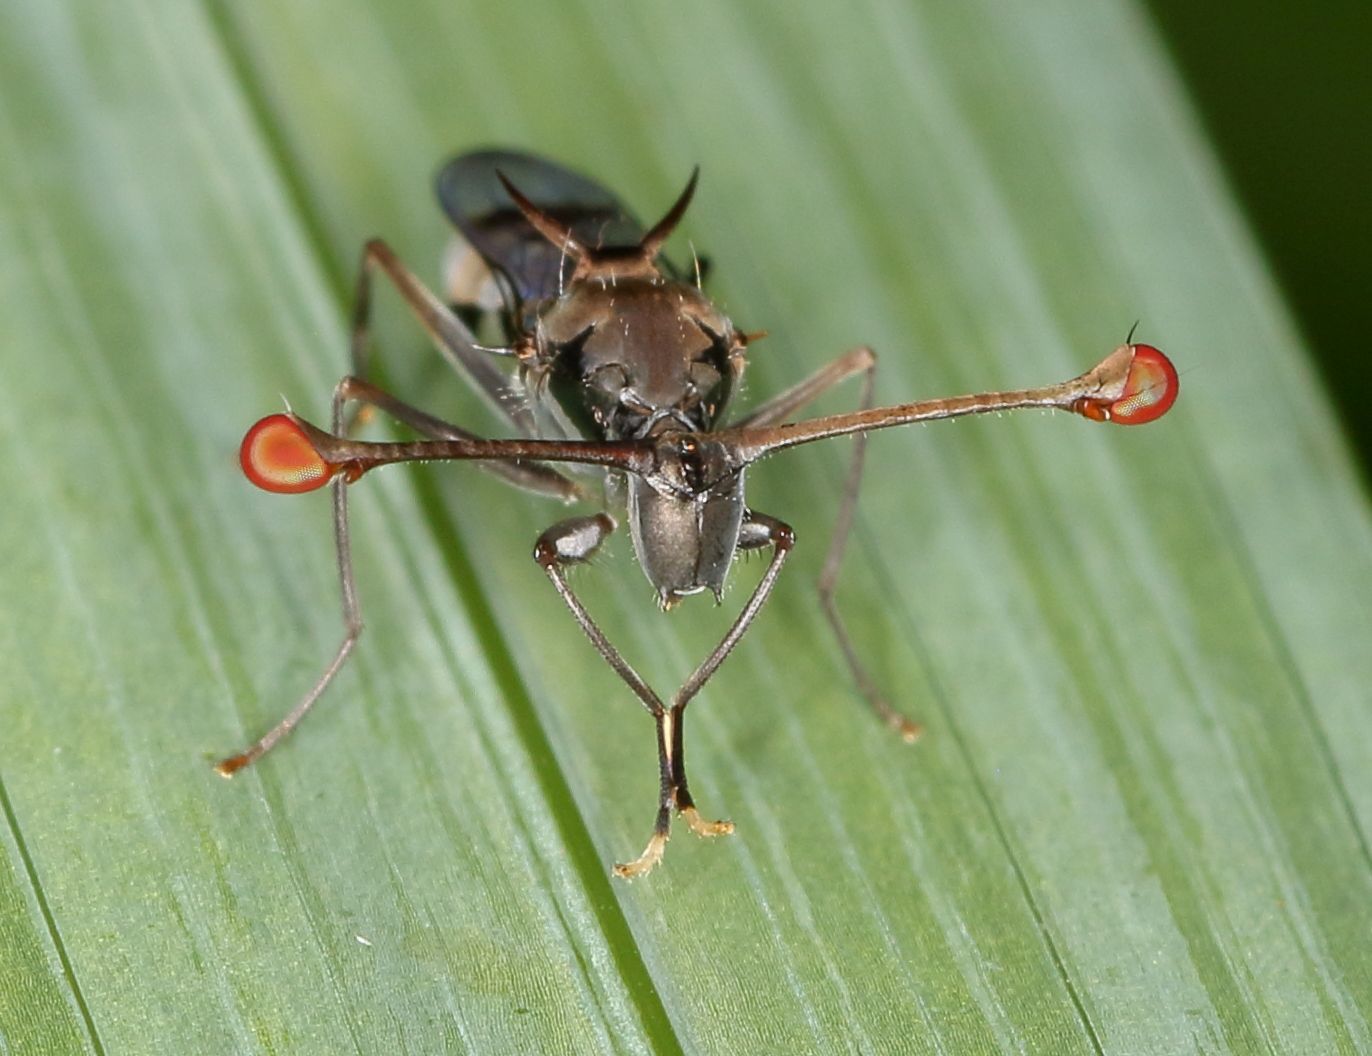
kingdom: Animalia
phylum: Arthropoda
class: Insecta
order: Diptera
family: Diopsidae
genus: Chaetodiopsis
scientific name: Chaetodiopsis
